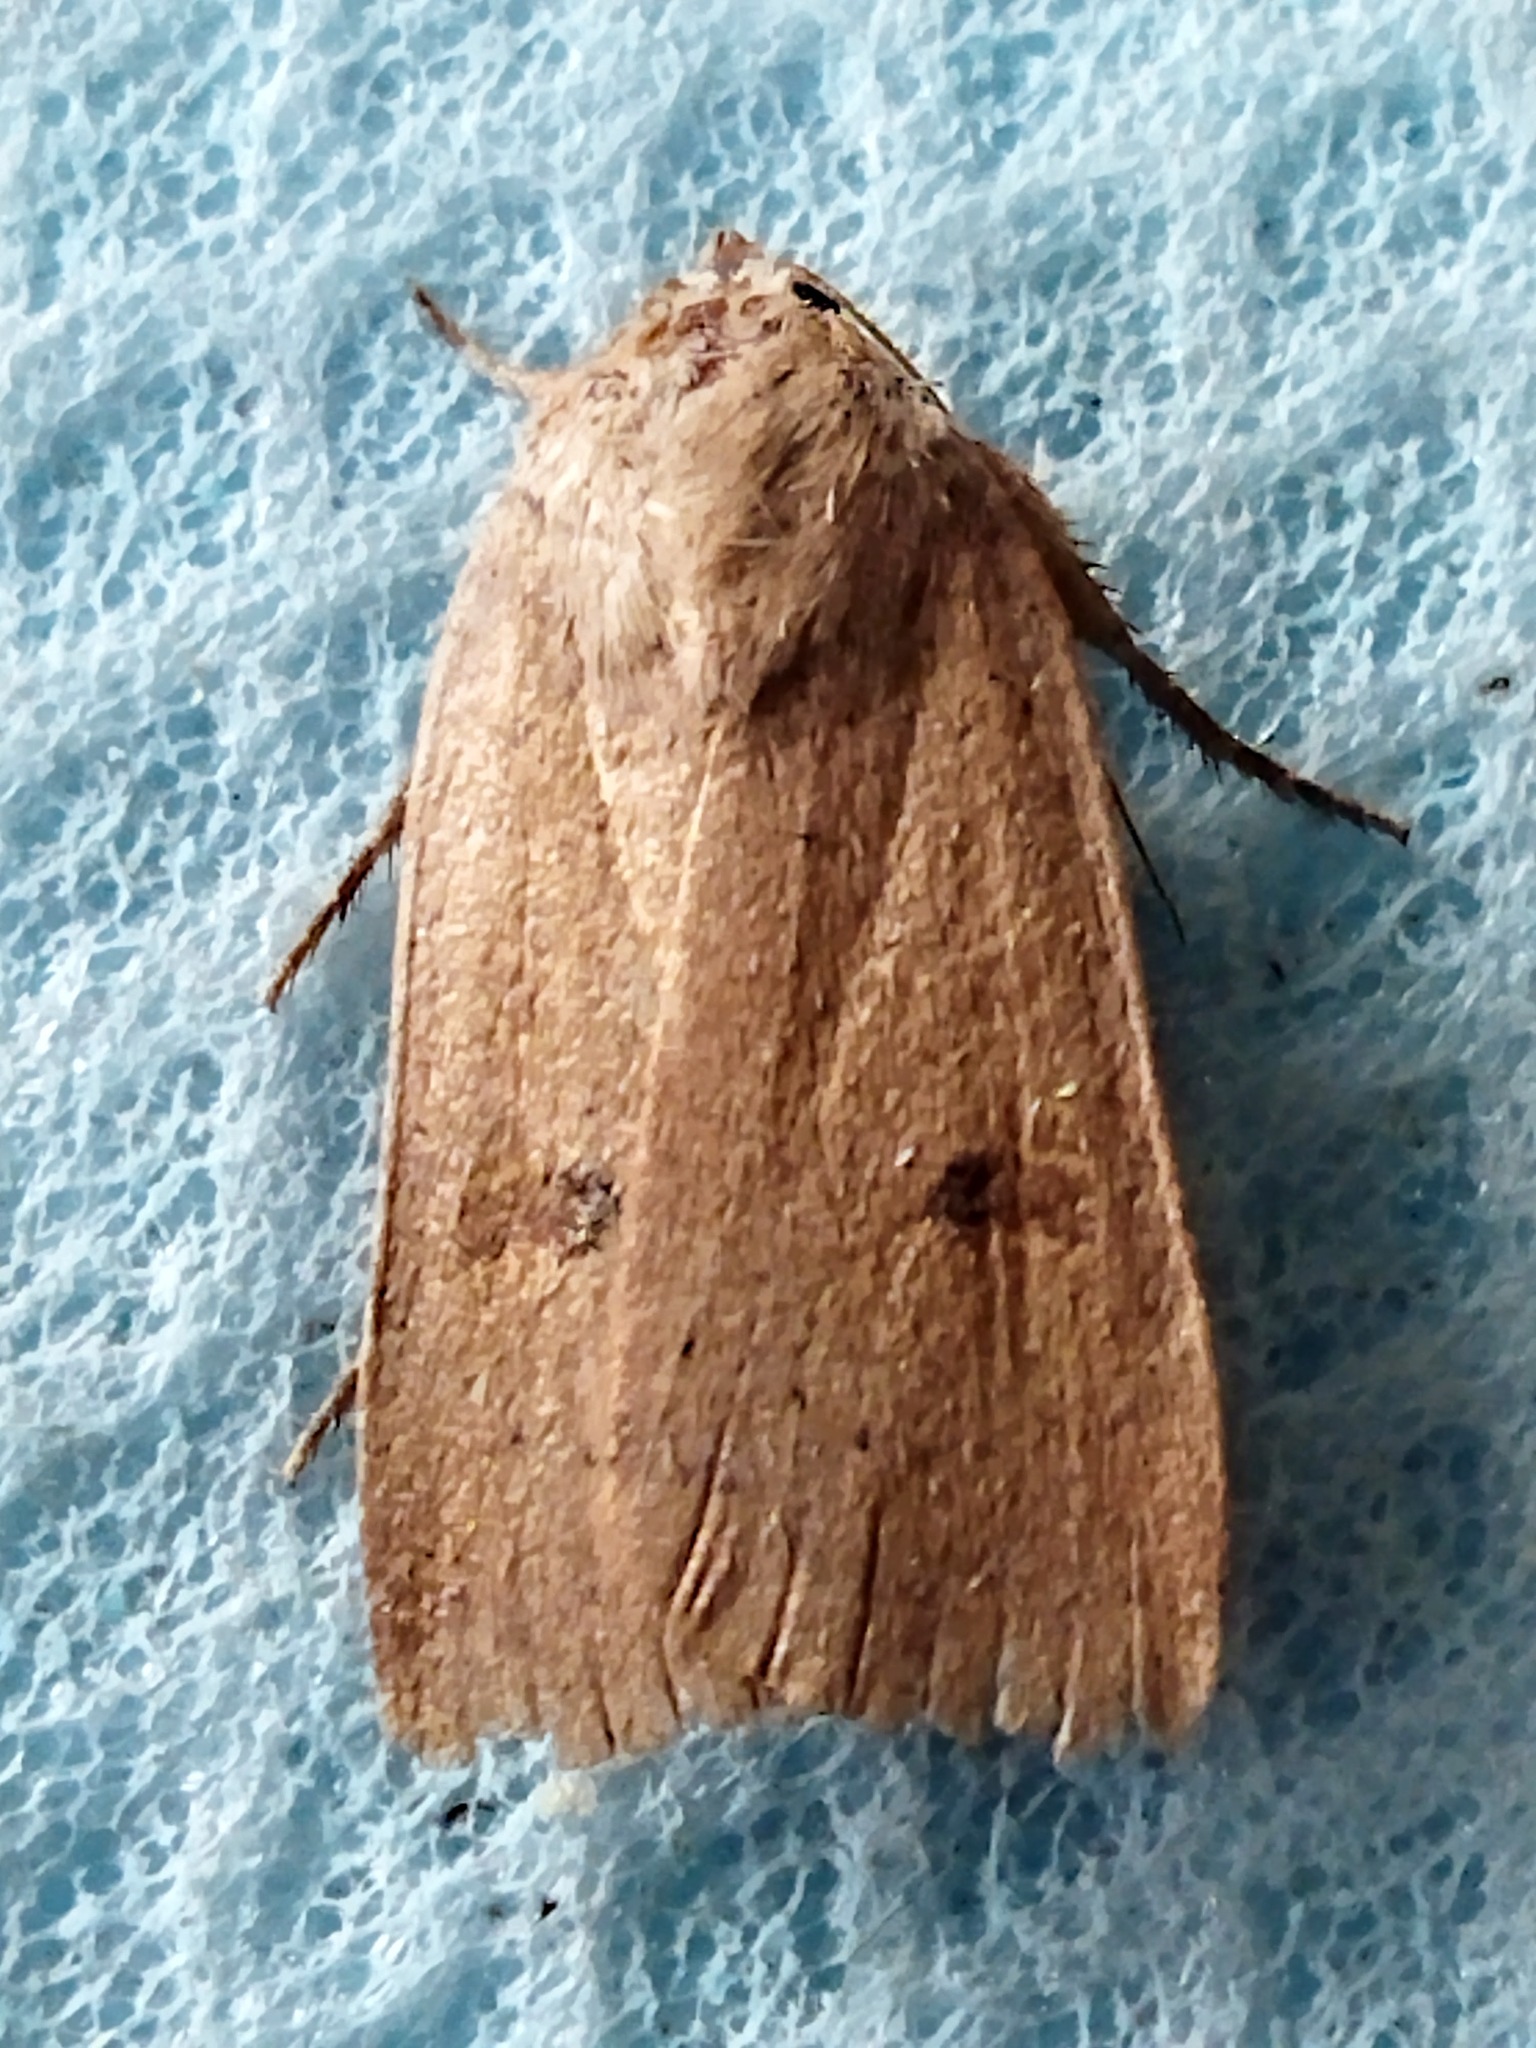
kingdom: Animalia
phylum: Arthropoda
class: Insecta
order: Lepidoptera
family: Noctuidae
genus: Noctua
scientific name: Noctua comes
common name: Lesser yellow underwing
